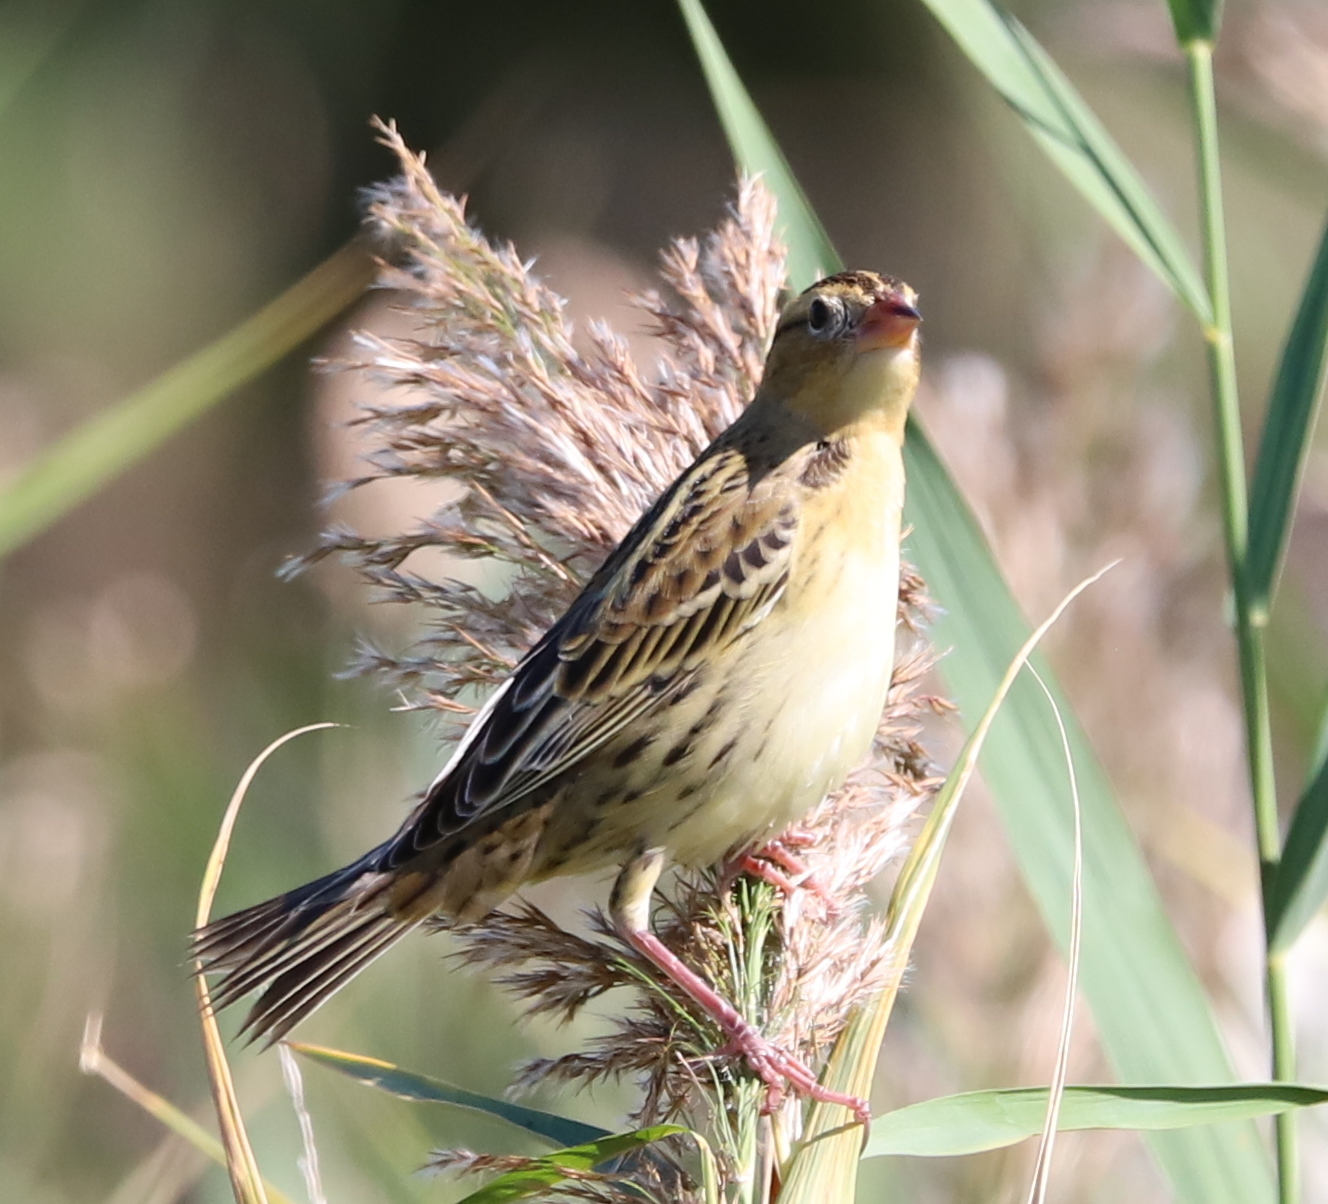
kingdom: Animalia
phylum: Chordata
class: Aves
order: Passeriformes
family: Icteridae
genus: Dolichonyx
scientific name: Dolichonyx oryzivorus
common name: Bobolink
